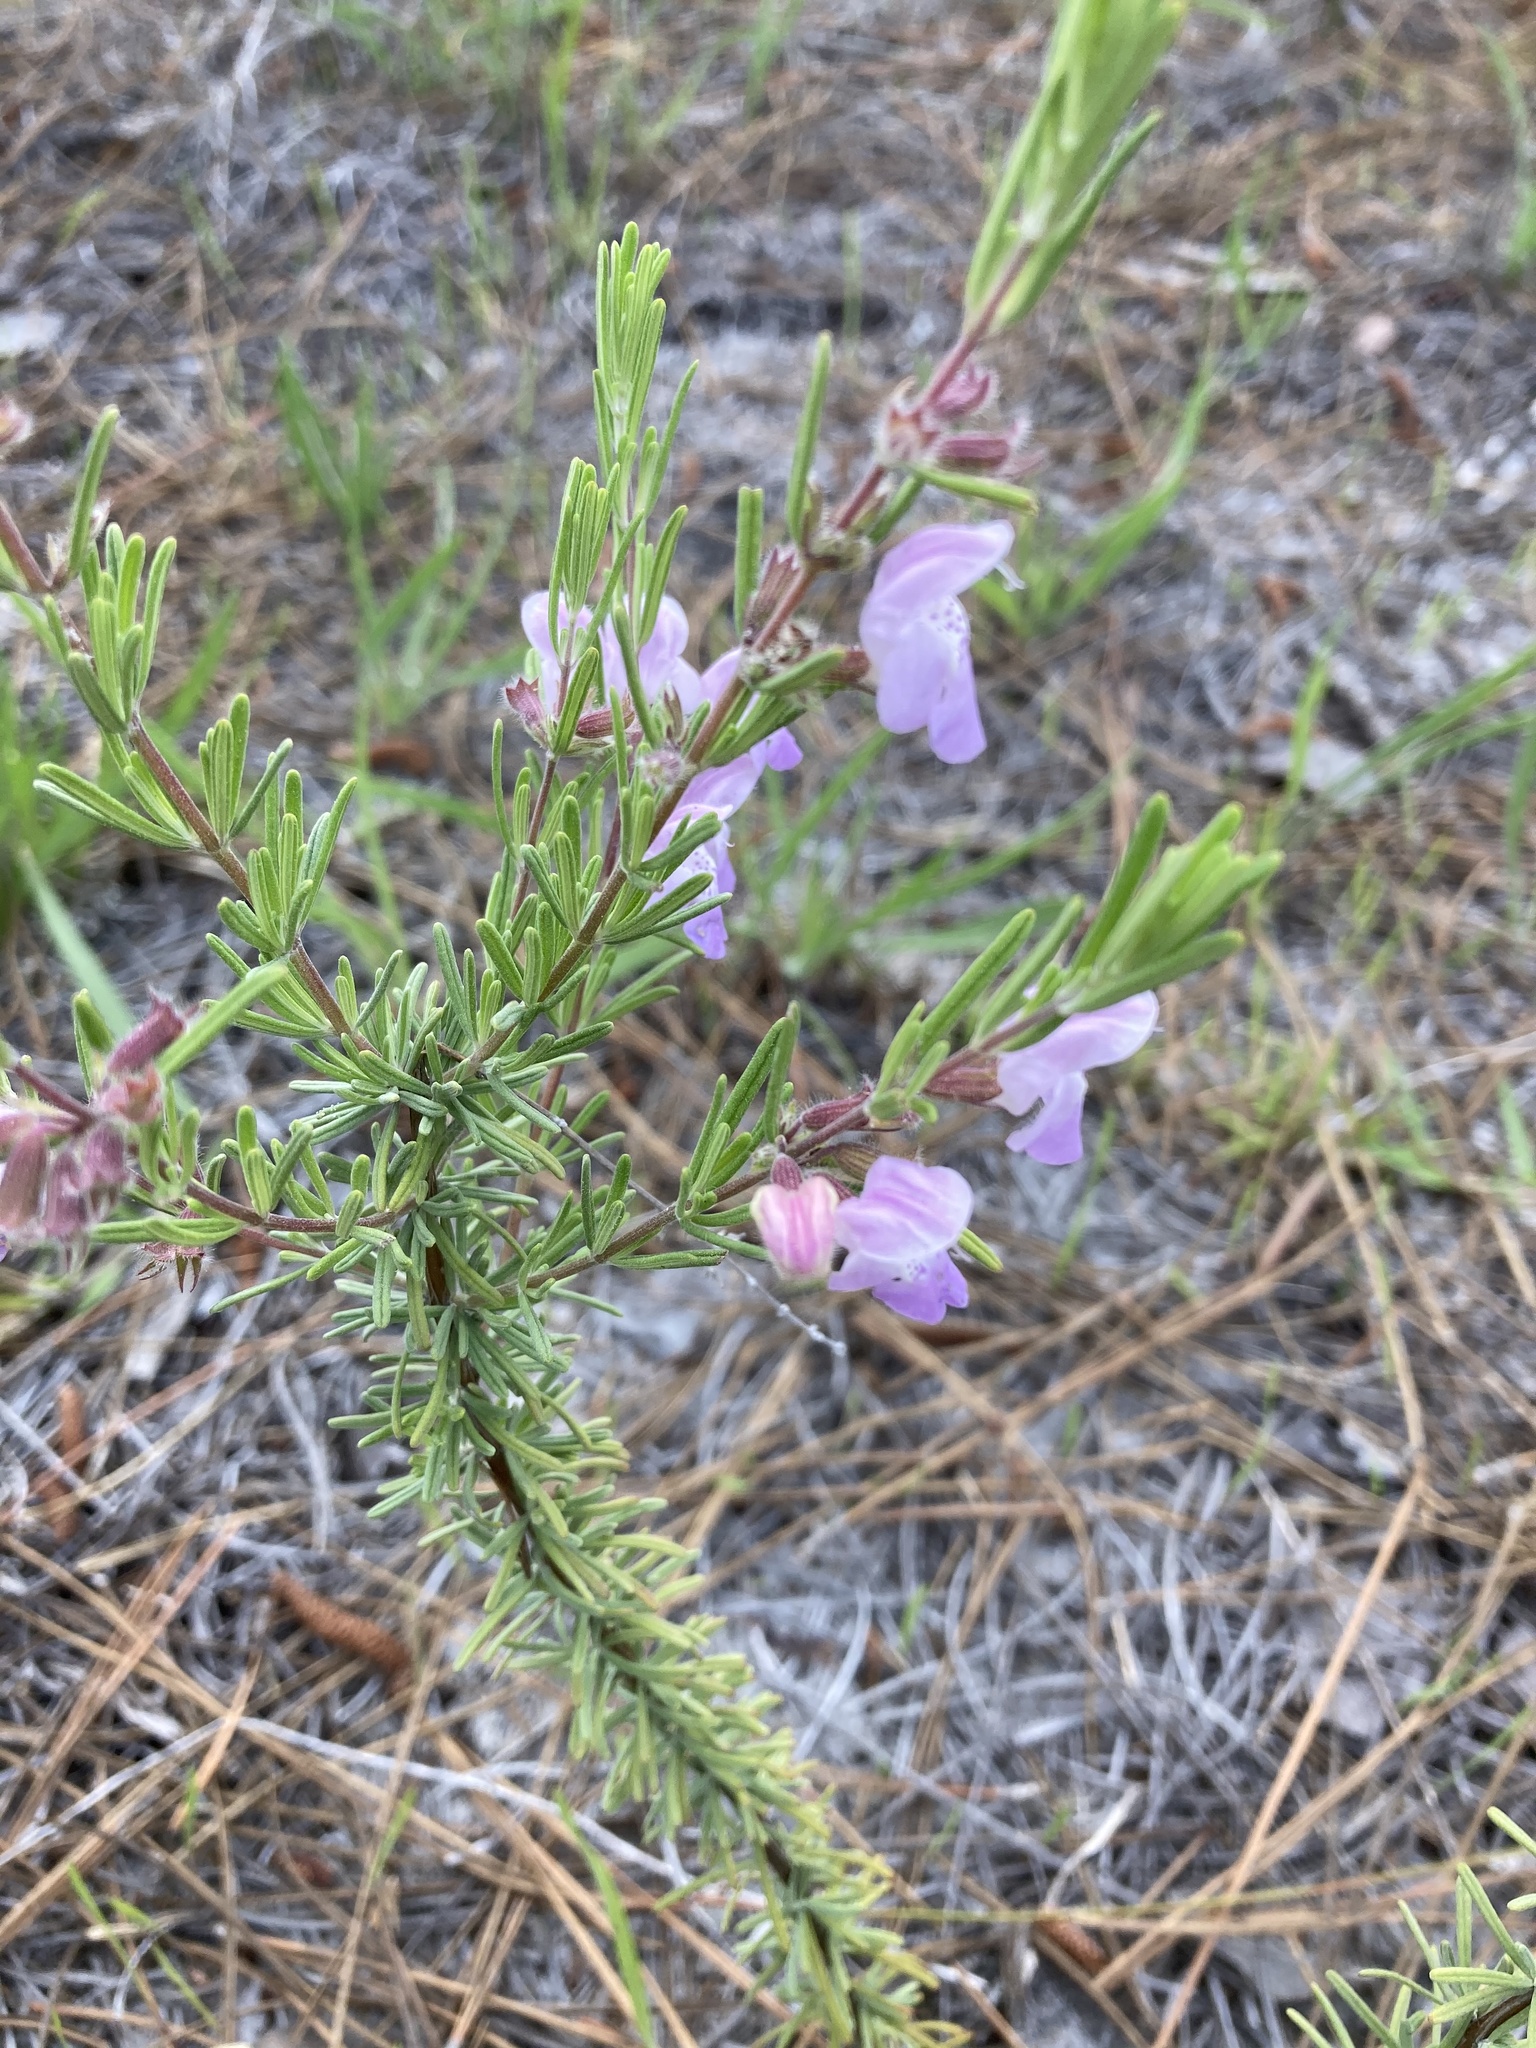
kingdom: Plantae
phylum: Tracheophyta
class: Magnoliopsida
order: Lamiales
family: Lamiaceae
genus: Conradina
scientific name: Conradina canescens
